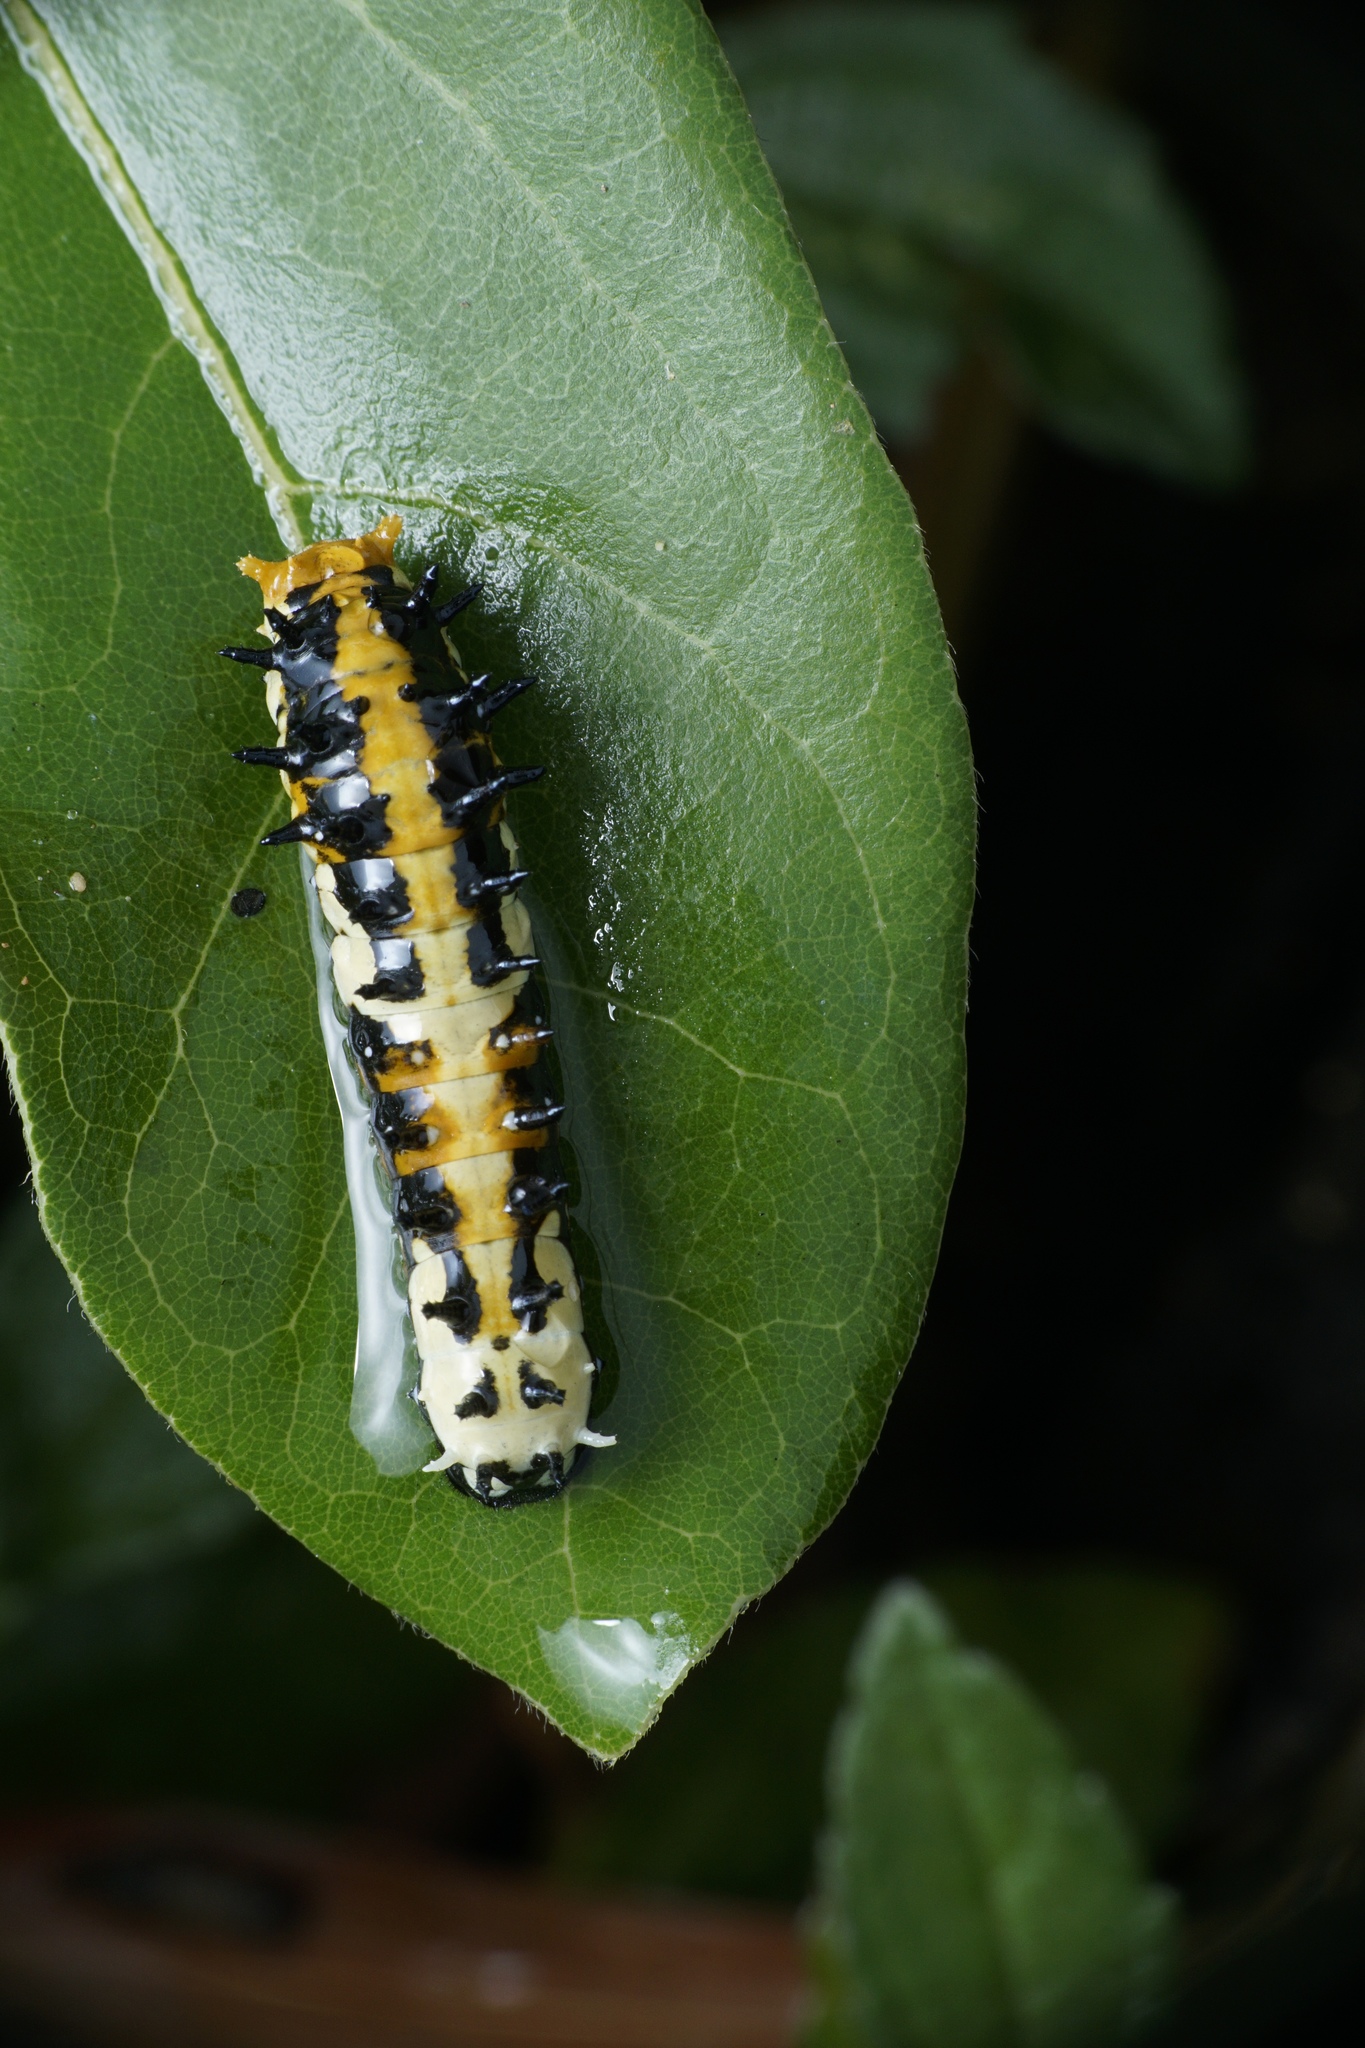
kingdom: Animalia
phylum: Arthropoda
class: Insecta
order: Lepidoptera
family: Papilionidae
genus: Chilasa
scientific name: Chilasa clytia
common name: Common mime
